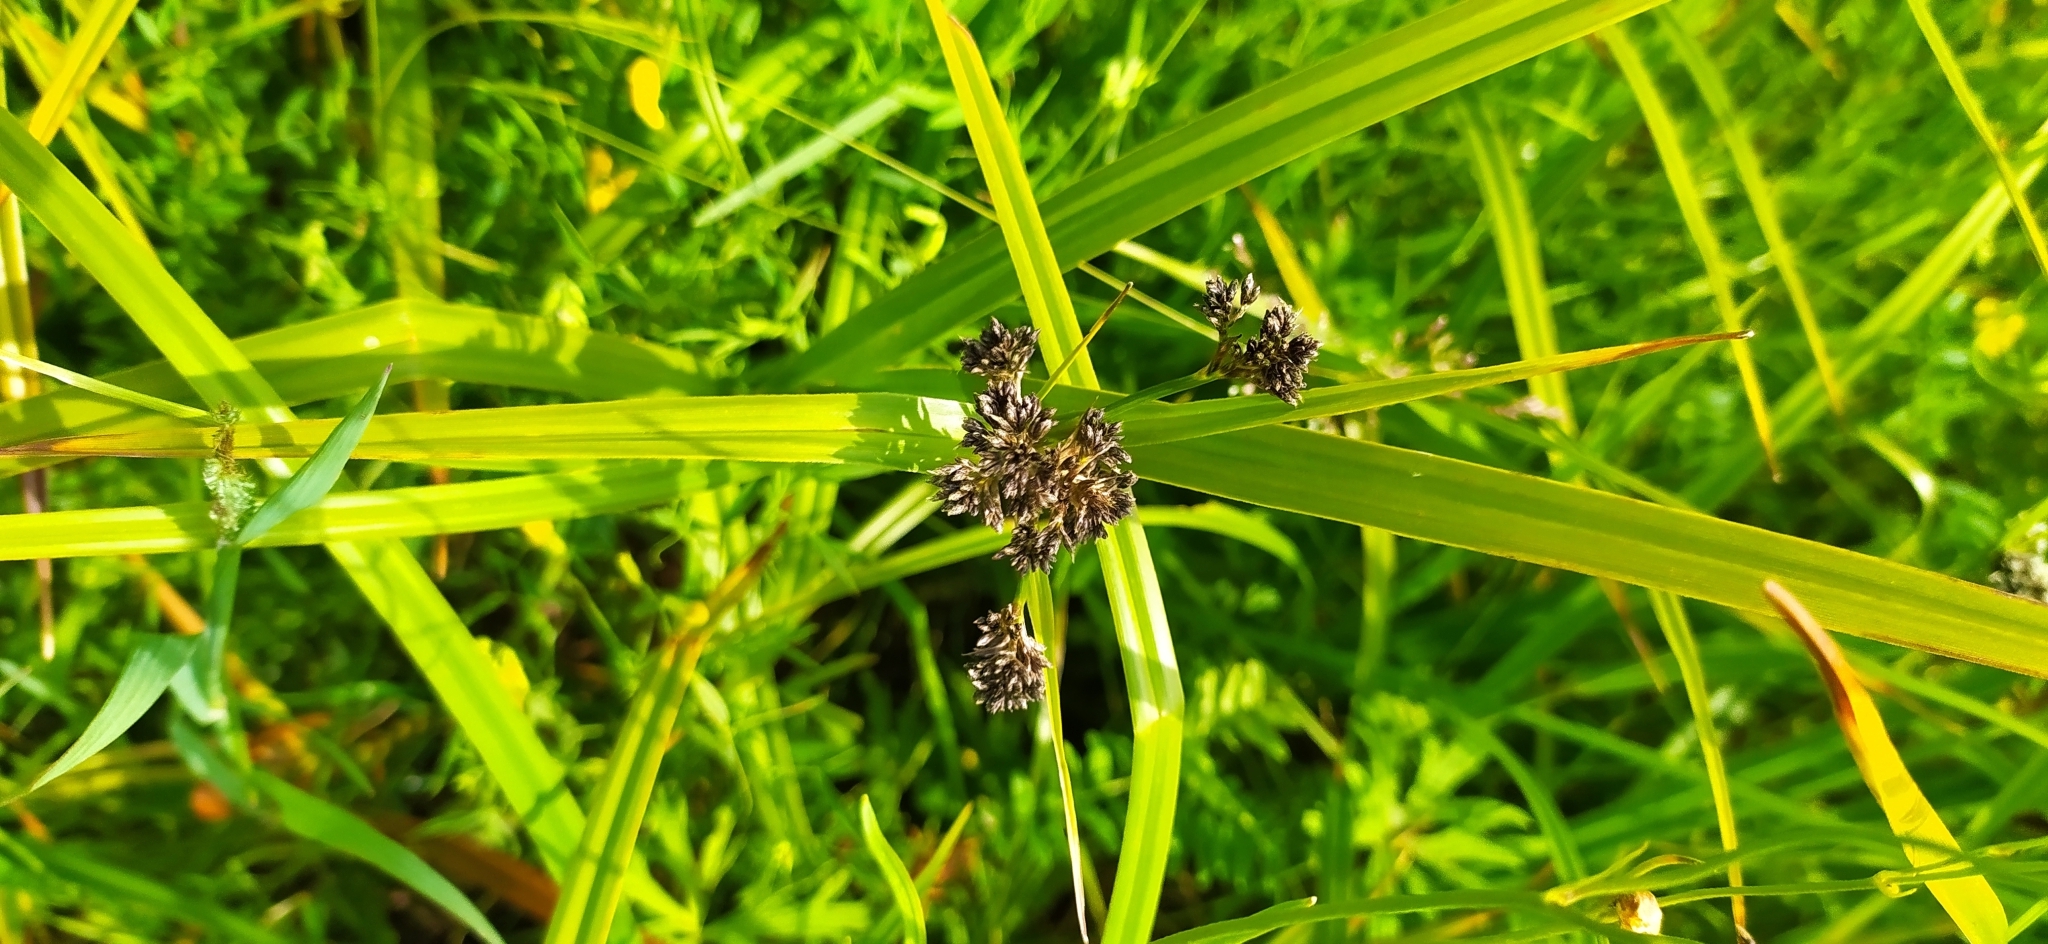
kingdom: Plantae
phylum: Tracheophyta
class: Liliopsida
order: Poales
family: Cyperaceae
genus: Scirpus
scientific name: Scirpus sylvaticus
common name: Wood club-rush
